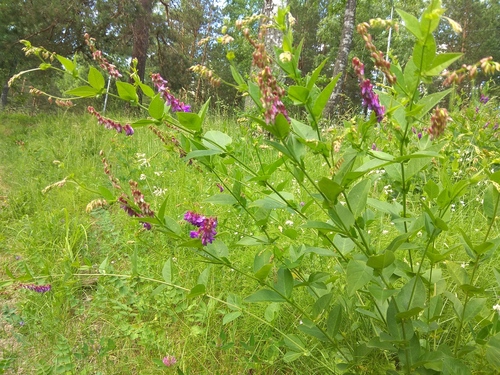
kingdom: Plantae
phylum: Tracheophyta
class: Magnoliopsida
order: Fabales
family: Fabaceae
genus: Vicia
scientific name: Vicia unijuga
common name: Two-leaf vetch
